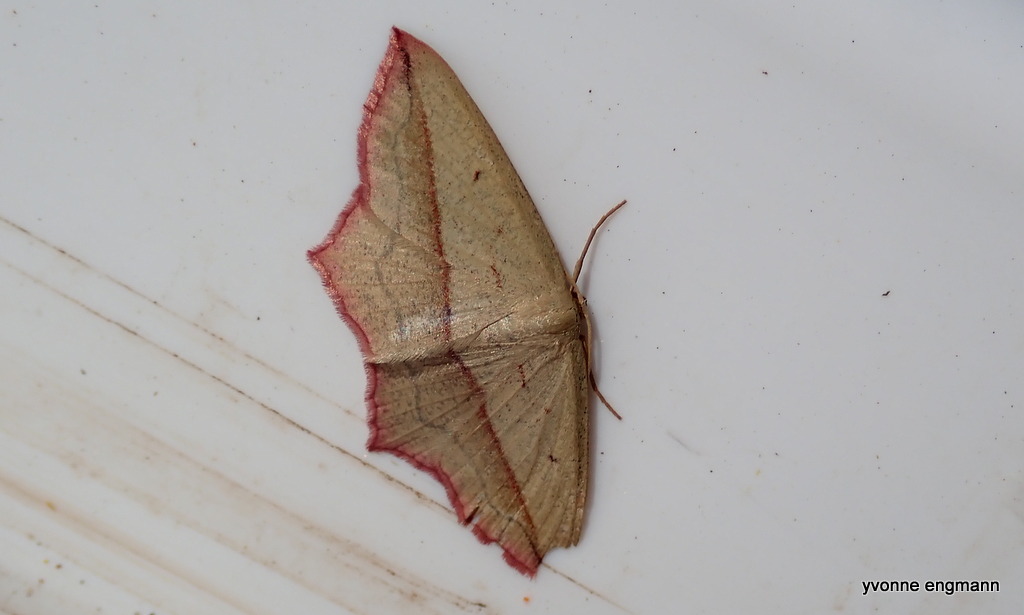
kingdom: Animalia
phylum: Arthropoda
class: Insecta
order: Lepidoptera
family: Geometridae
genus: Timandra
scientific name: Timandra comae
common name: Blood-vein
